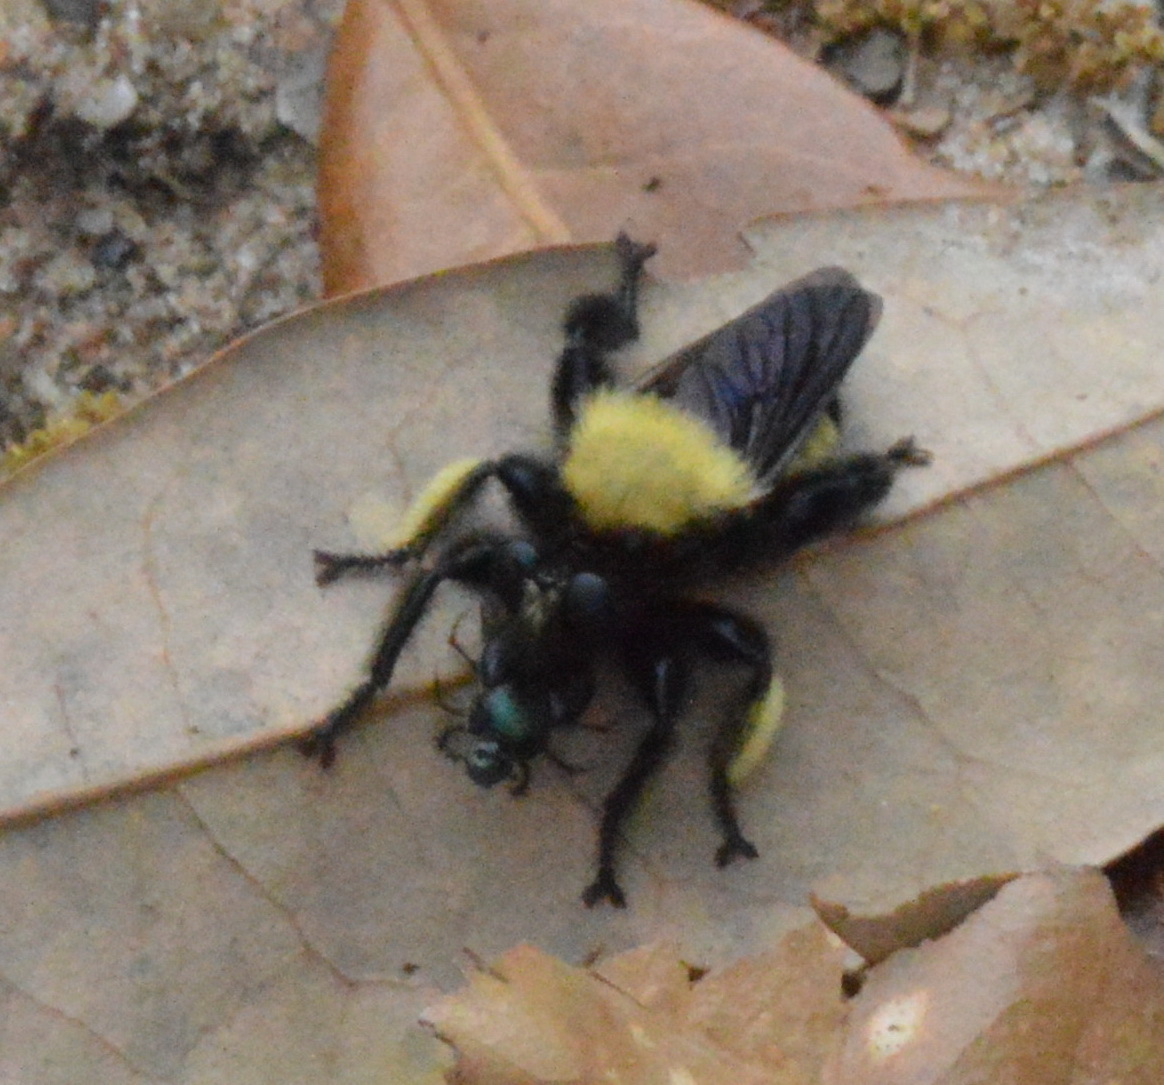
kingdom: Animalia
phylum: Arthropoda
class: Insecta
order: Diptera
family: Asilidae
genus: Laphria
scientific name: Laphria macquarti
